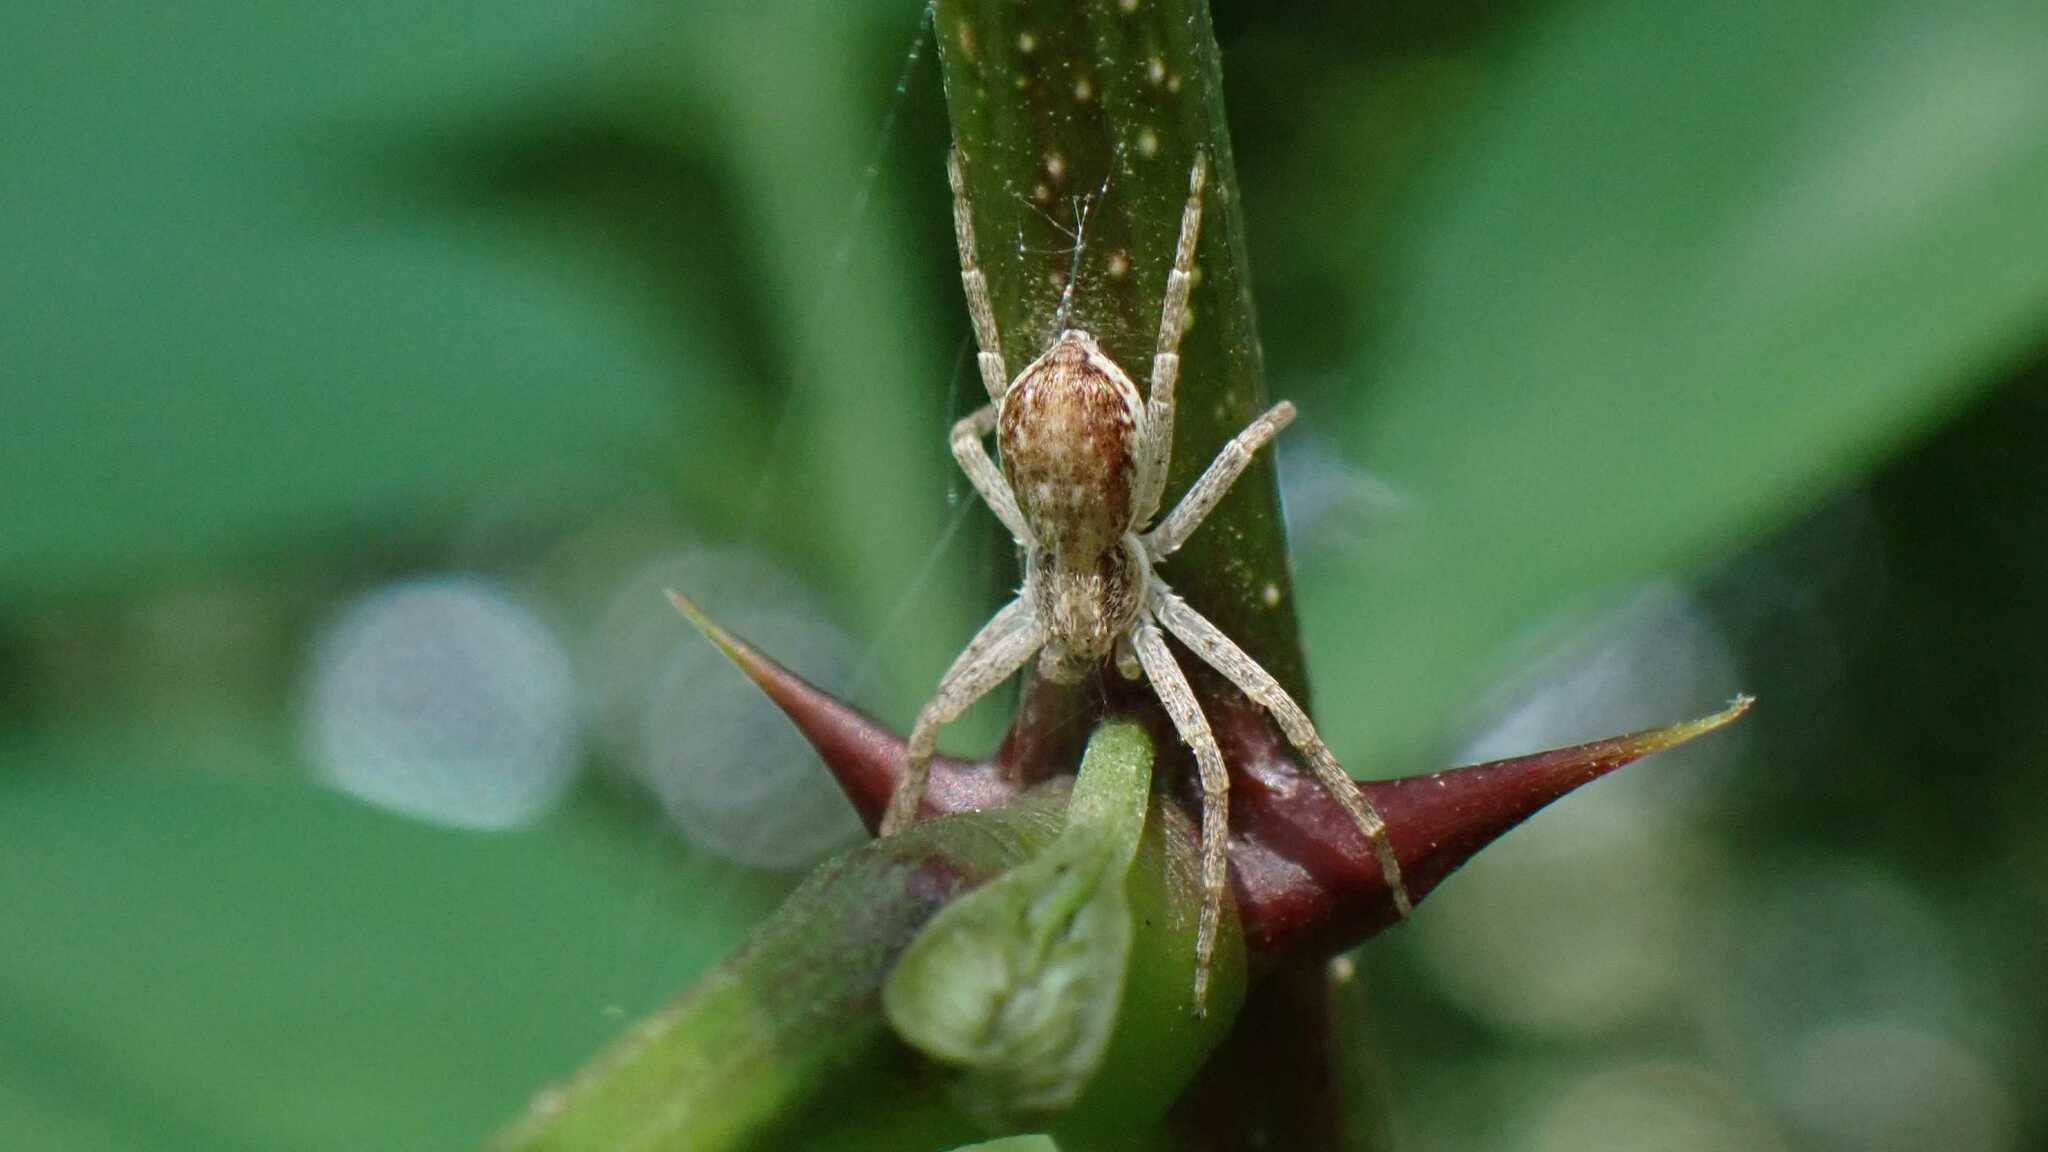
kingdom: Animalia
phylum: Arthropoda
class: Arachnida
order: Araneae
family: Philodromidae
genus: Philodromus
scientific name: Philodromus dispar
